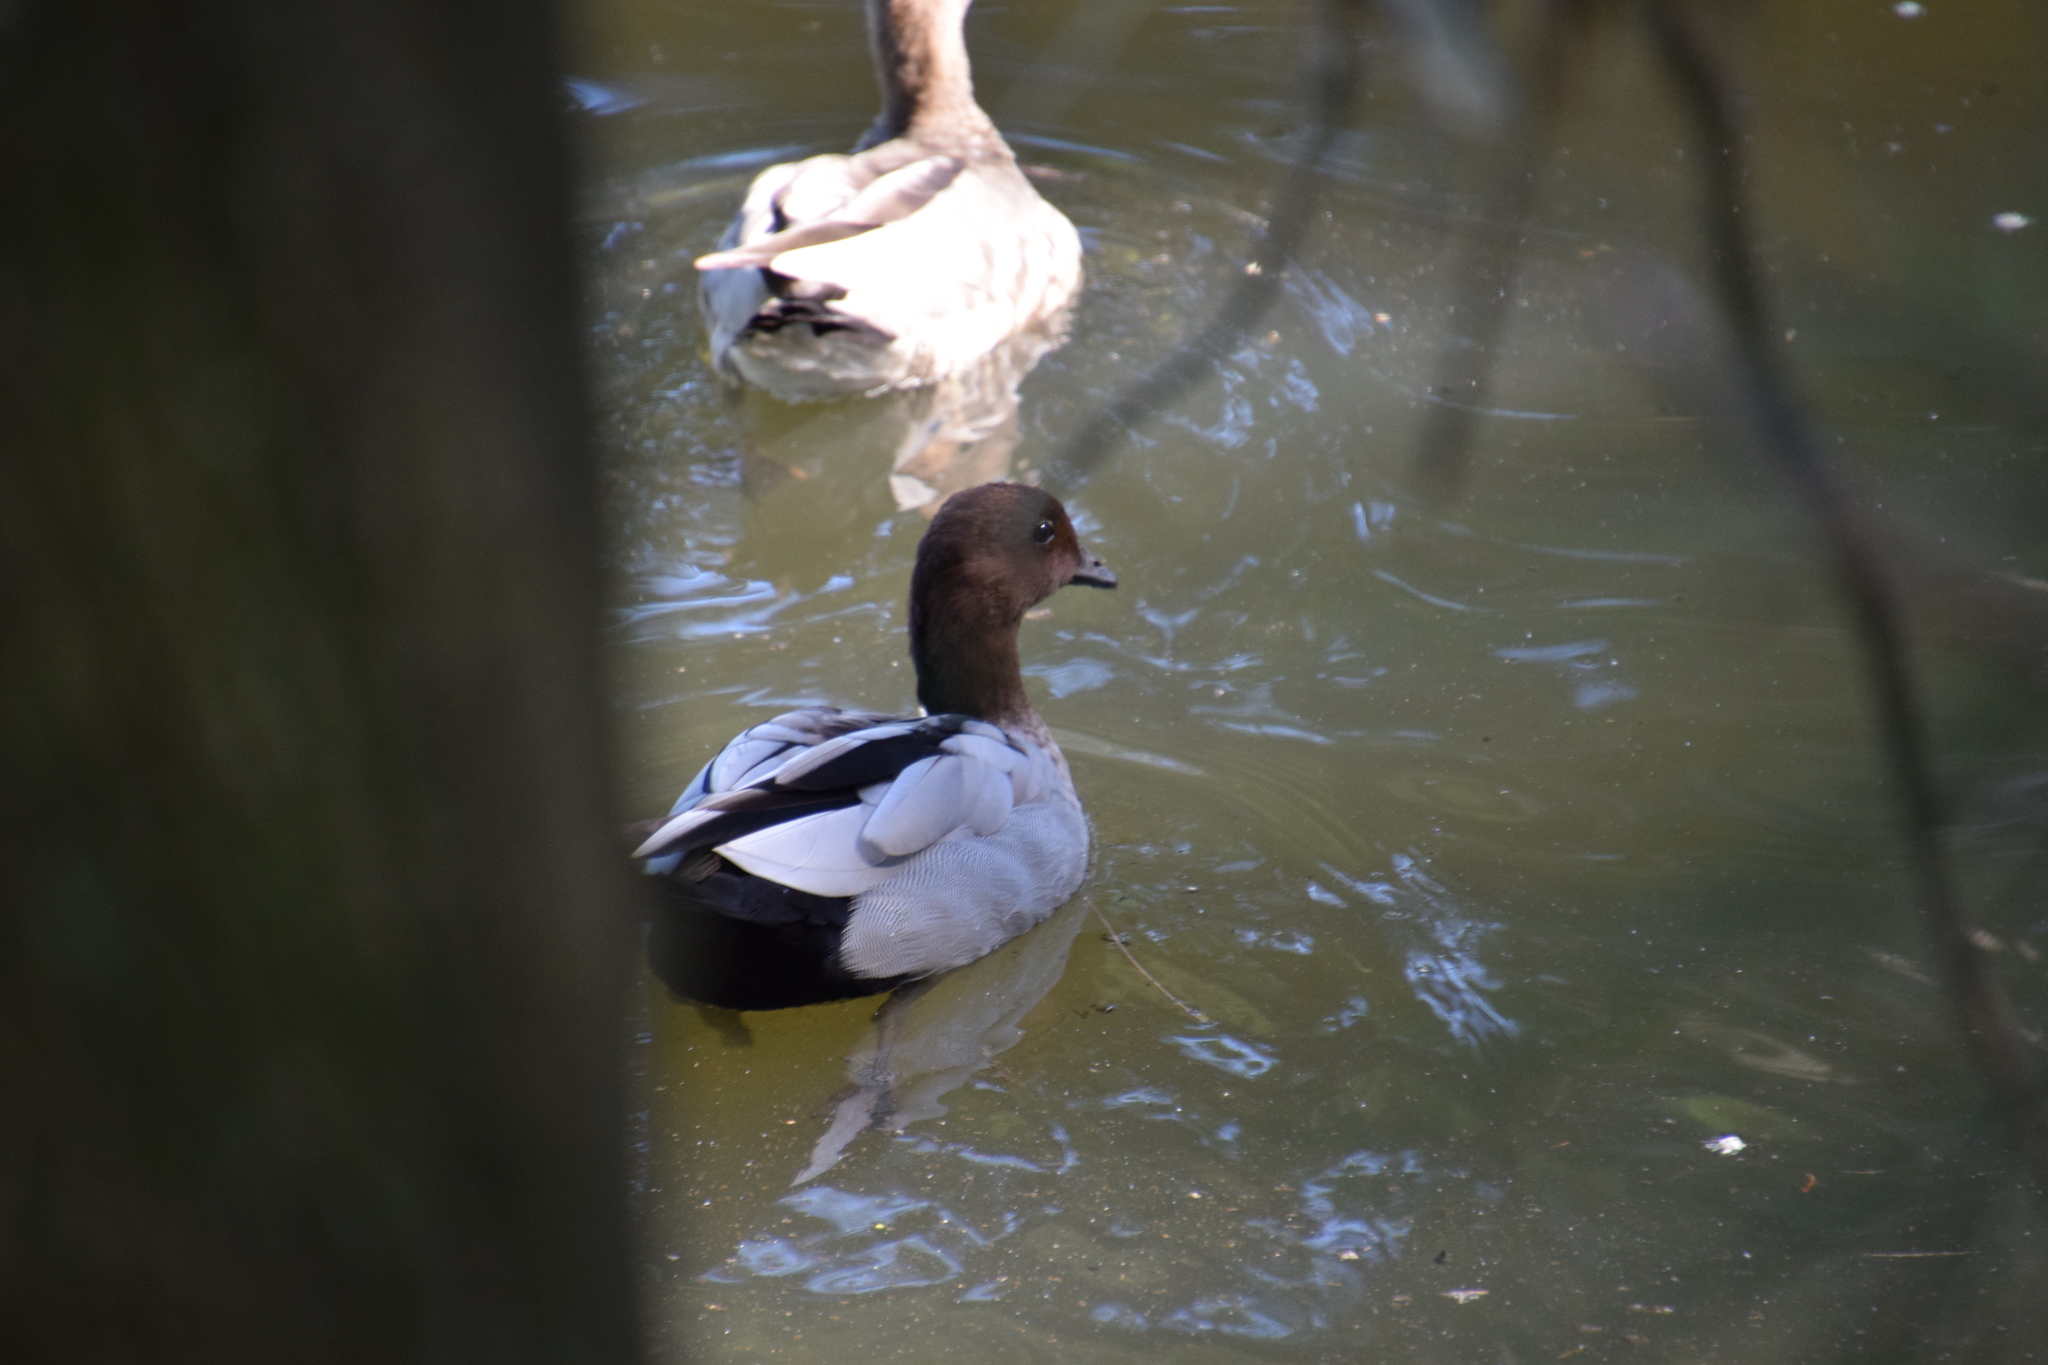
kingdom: Animalia
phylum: Chordata
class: Aves
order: Anseriformes
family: Anatidae
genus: Chenonetta
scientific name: Chenonetta jubata
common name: Maned duck
